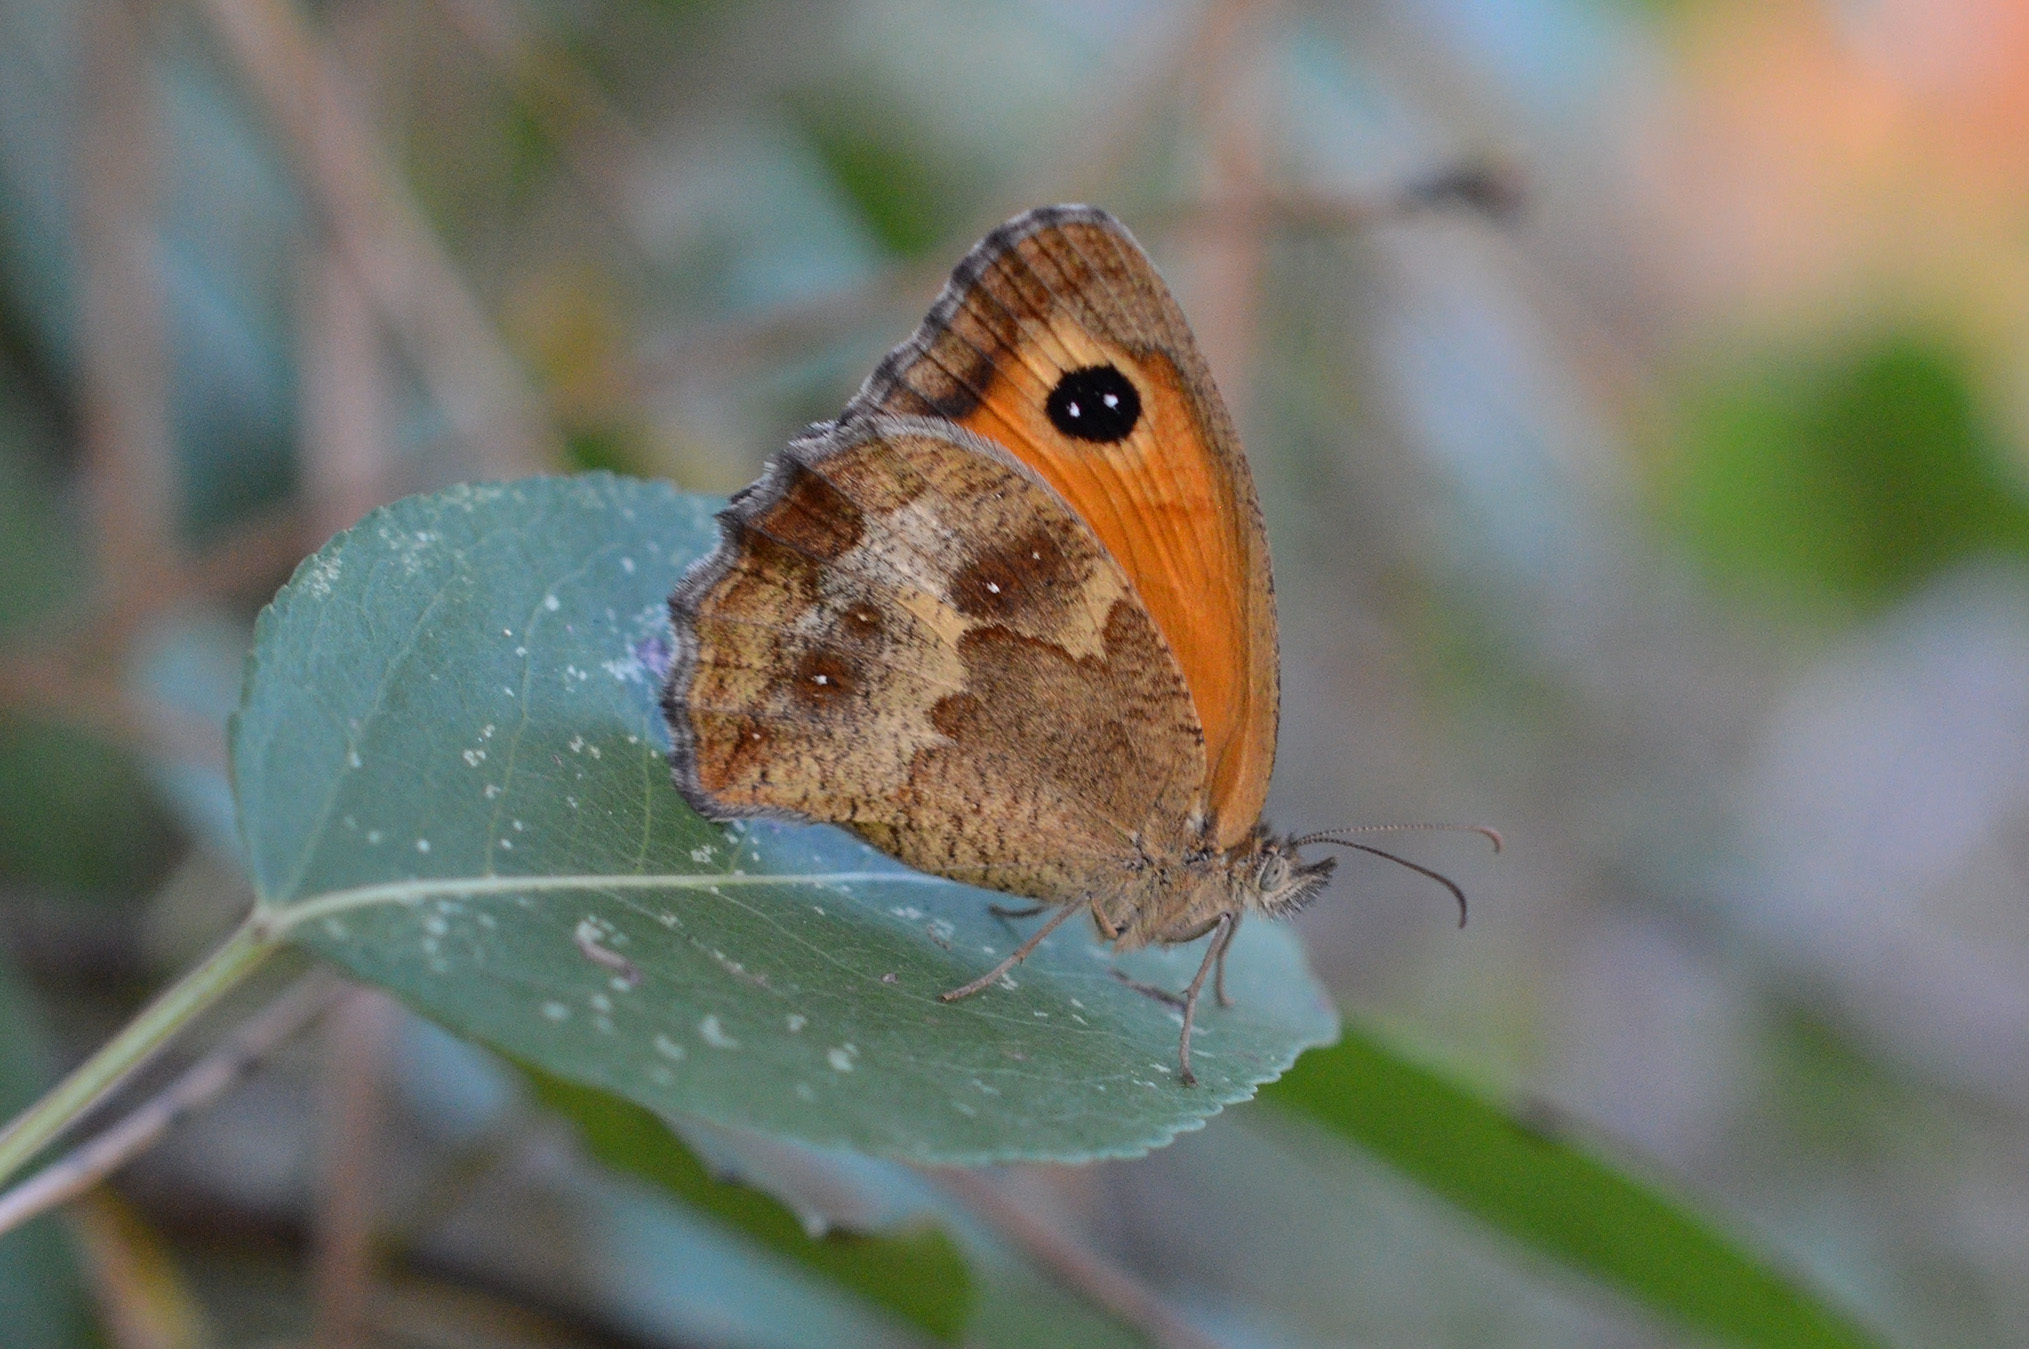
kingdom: Animalia
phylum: Arthropoda
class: Insecta
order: Lepidoptera
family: Nymphalidae
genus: Pyronia
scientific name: Pyronia tithonus
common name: Gatekeeper
